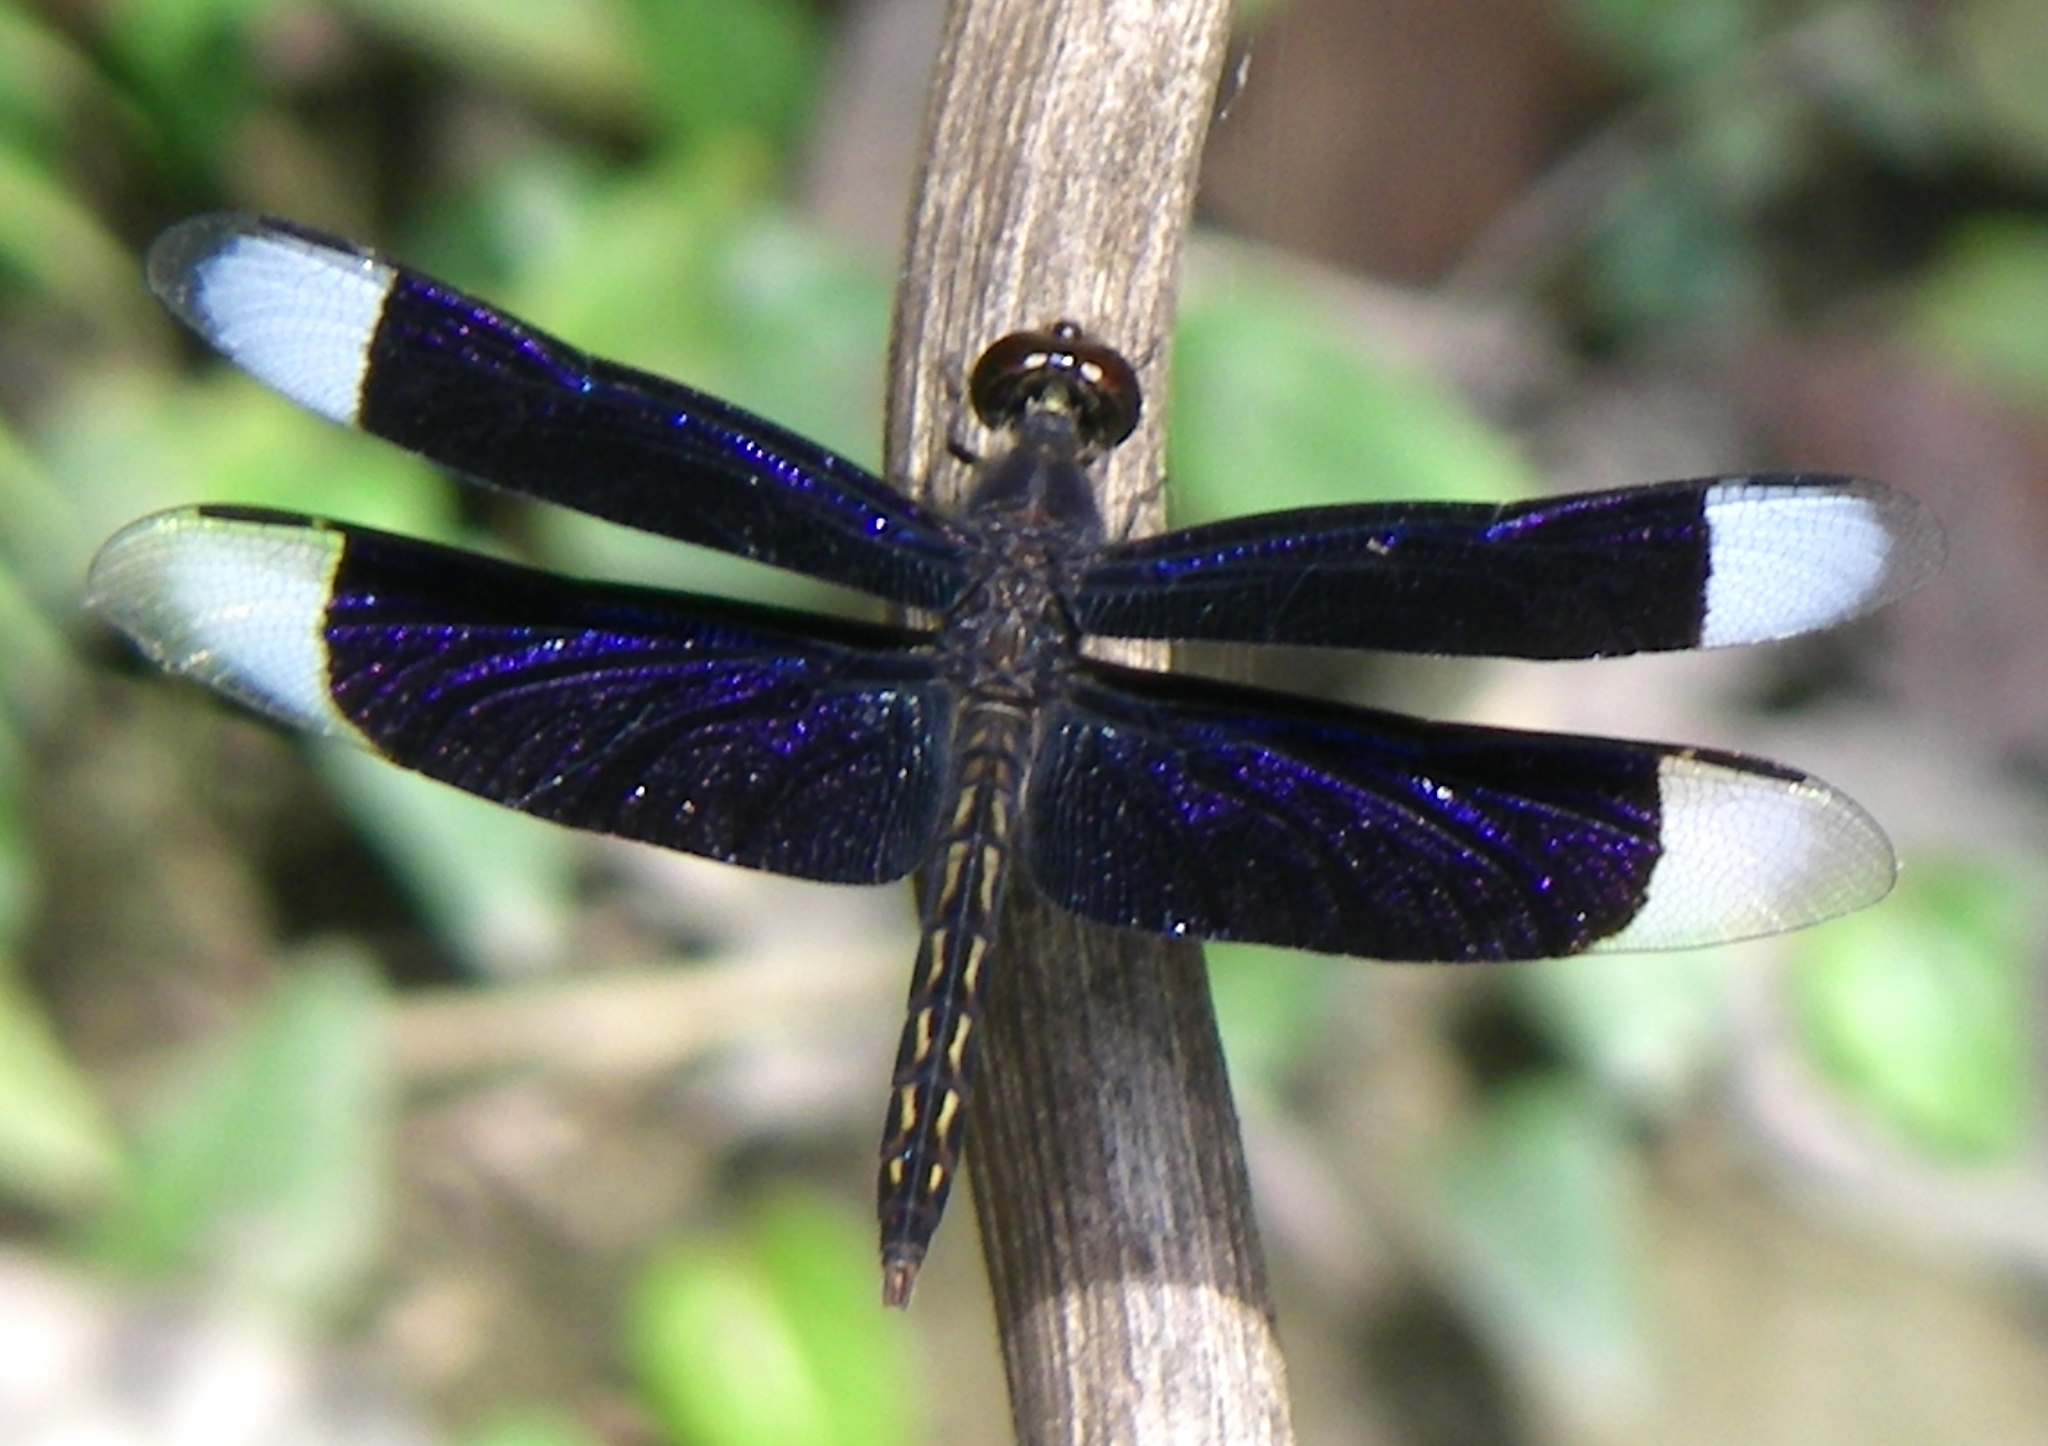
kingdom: Animalia
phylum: Arthropoda
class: Insecta
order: Odonata
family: Libellulidae
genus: Neurothemis
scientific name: Neurothemis decora
